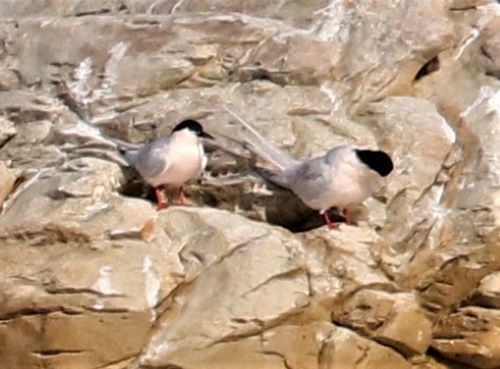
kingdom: Animalia
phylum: Chordata
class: Aves
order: Charadriiformes
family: Laridae
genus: Sterna
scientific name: Sterna dougallii
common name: Roseate tern
